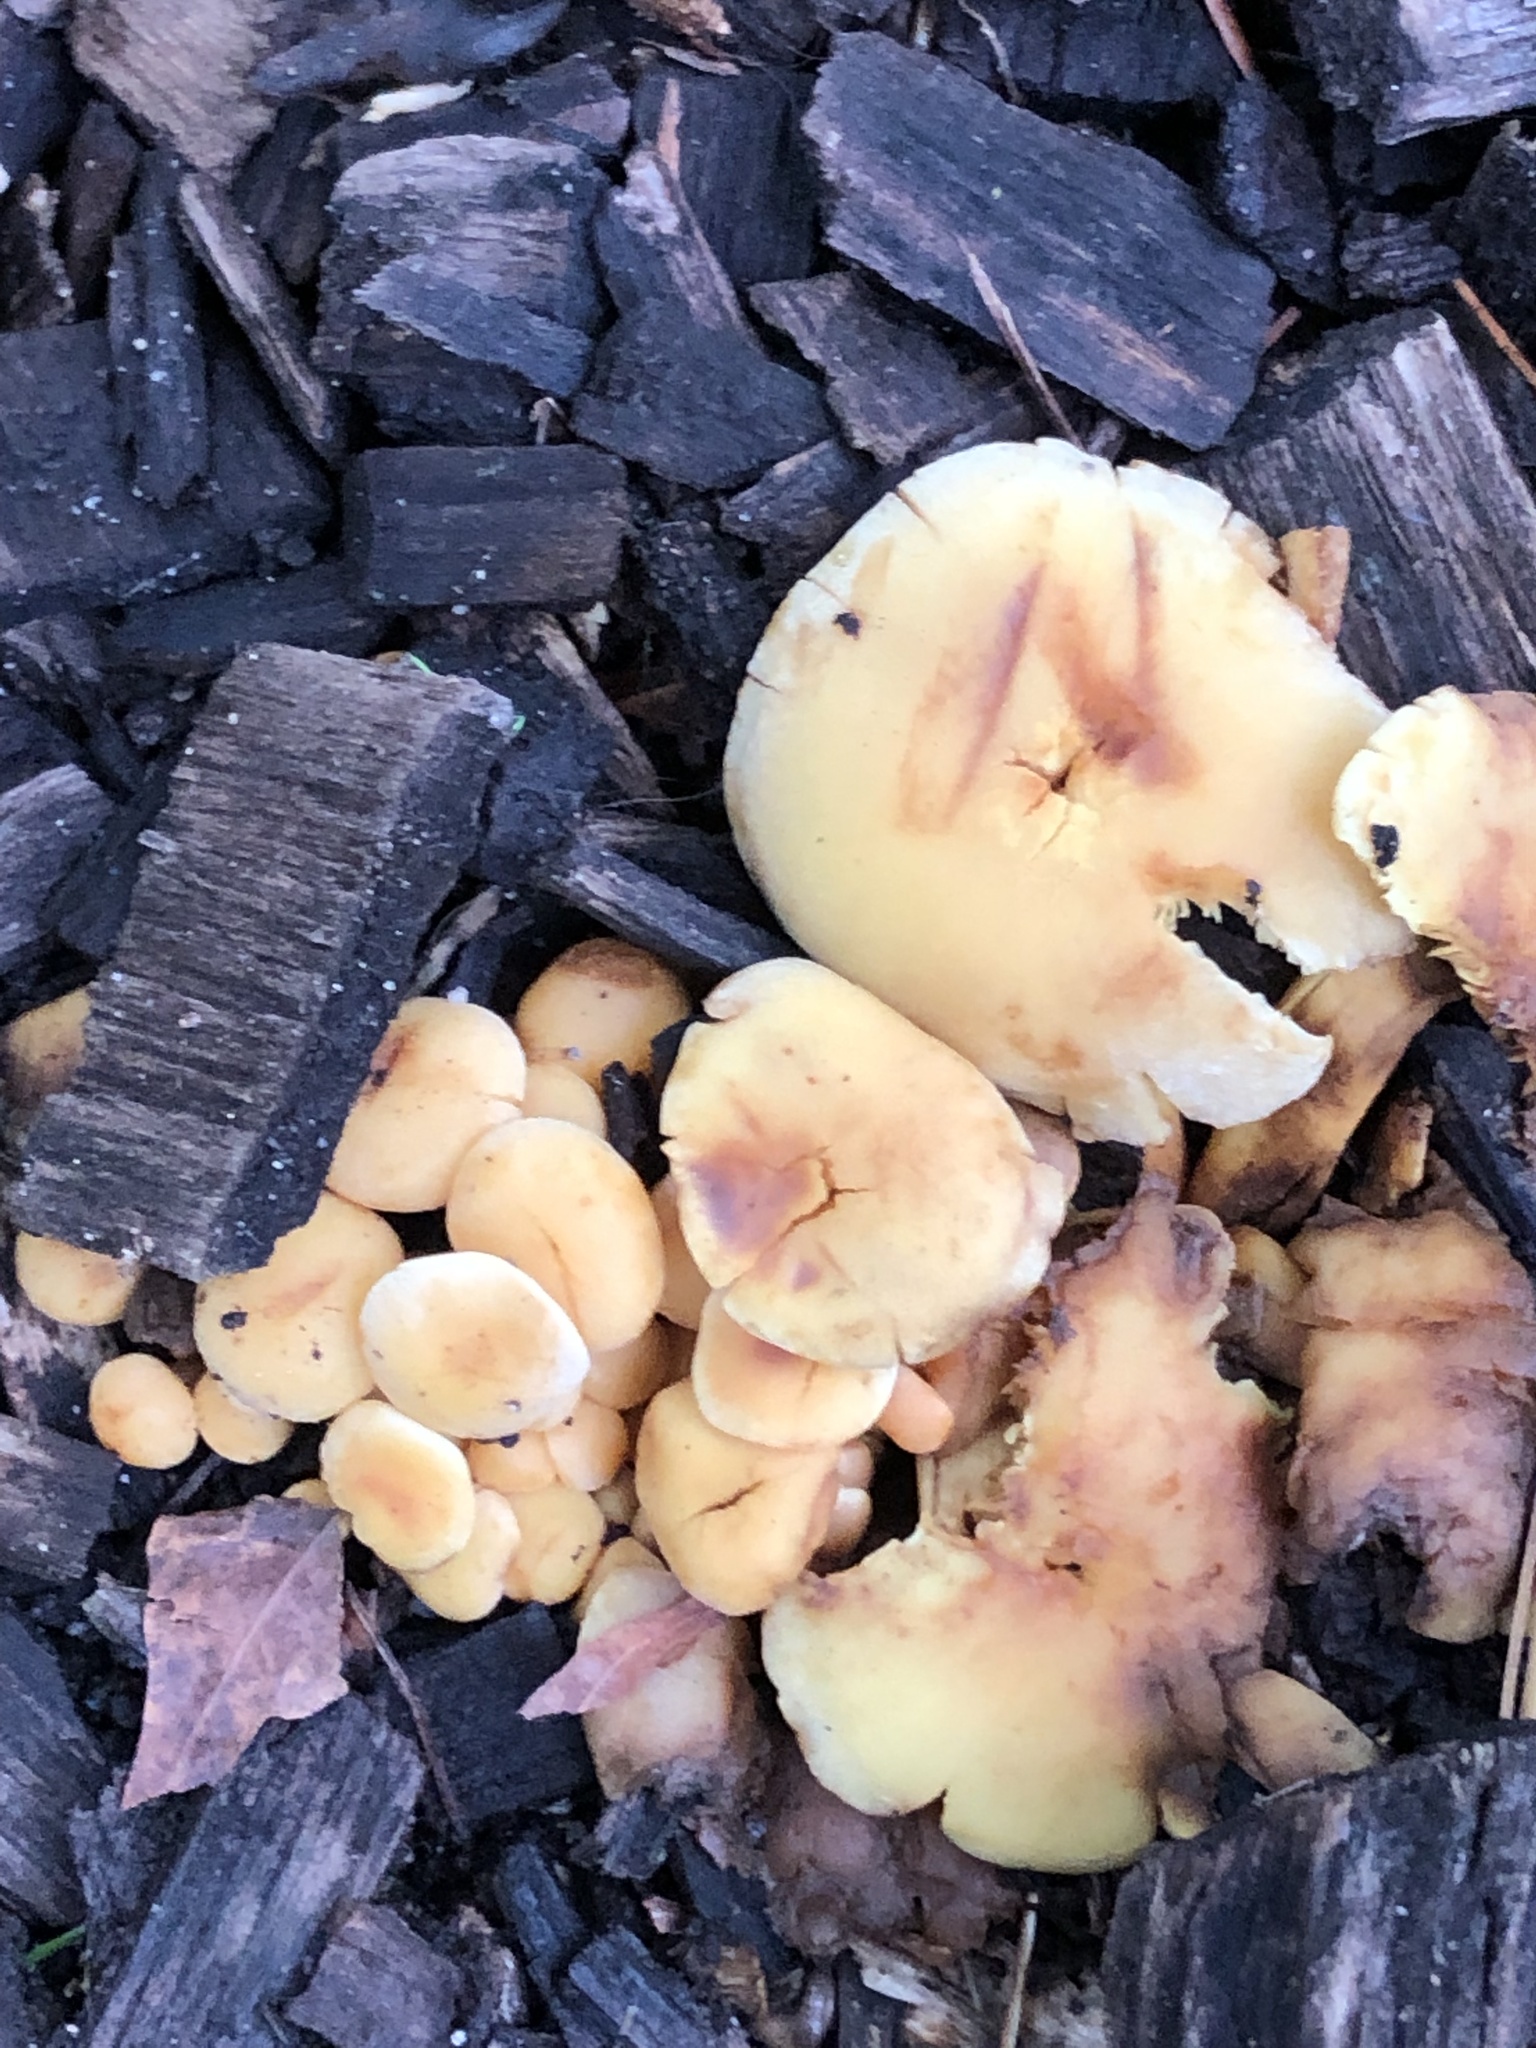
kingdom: Fungi
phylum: Basidiomycota
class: Agaricomycetes
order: Agaricales
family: Strophariaceae
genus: Hypholoma
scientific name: Hypholoma fasciculare
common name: Sulphur tuft
